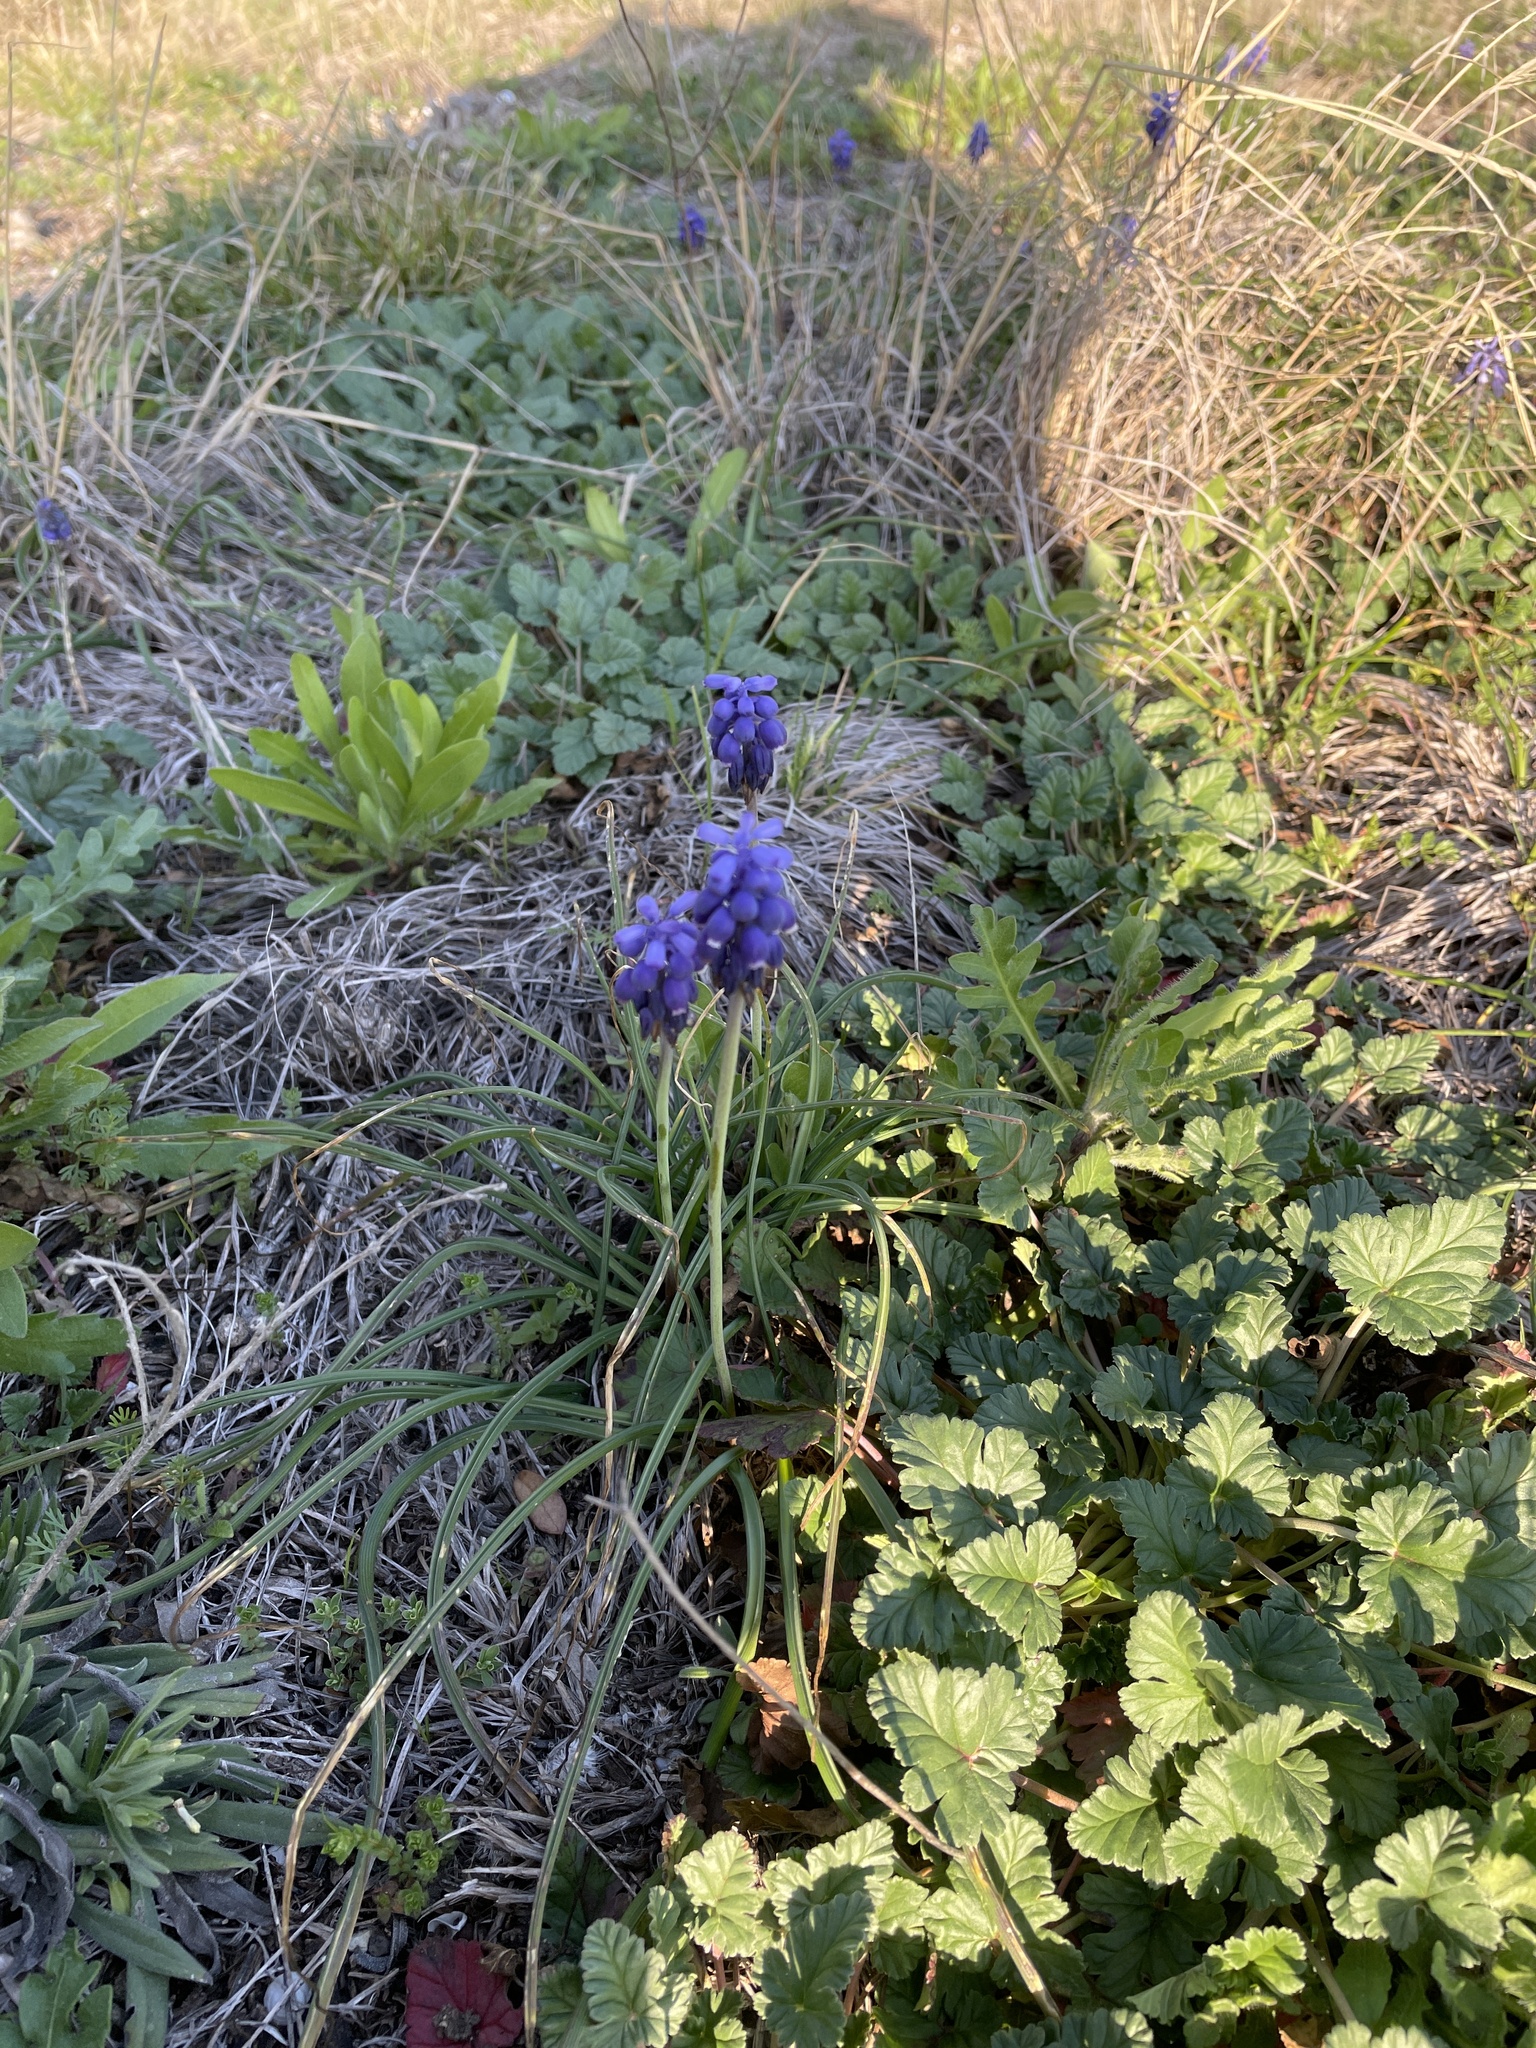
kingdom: Plantae
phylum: Tracheophyta
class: Liliopsida
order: Asparagales
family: Asparagaceae
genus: Muscari
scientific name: Muscari neglectum
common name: Grape-hyacinth
